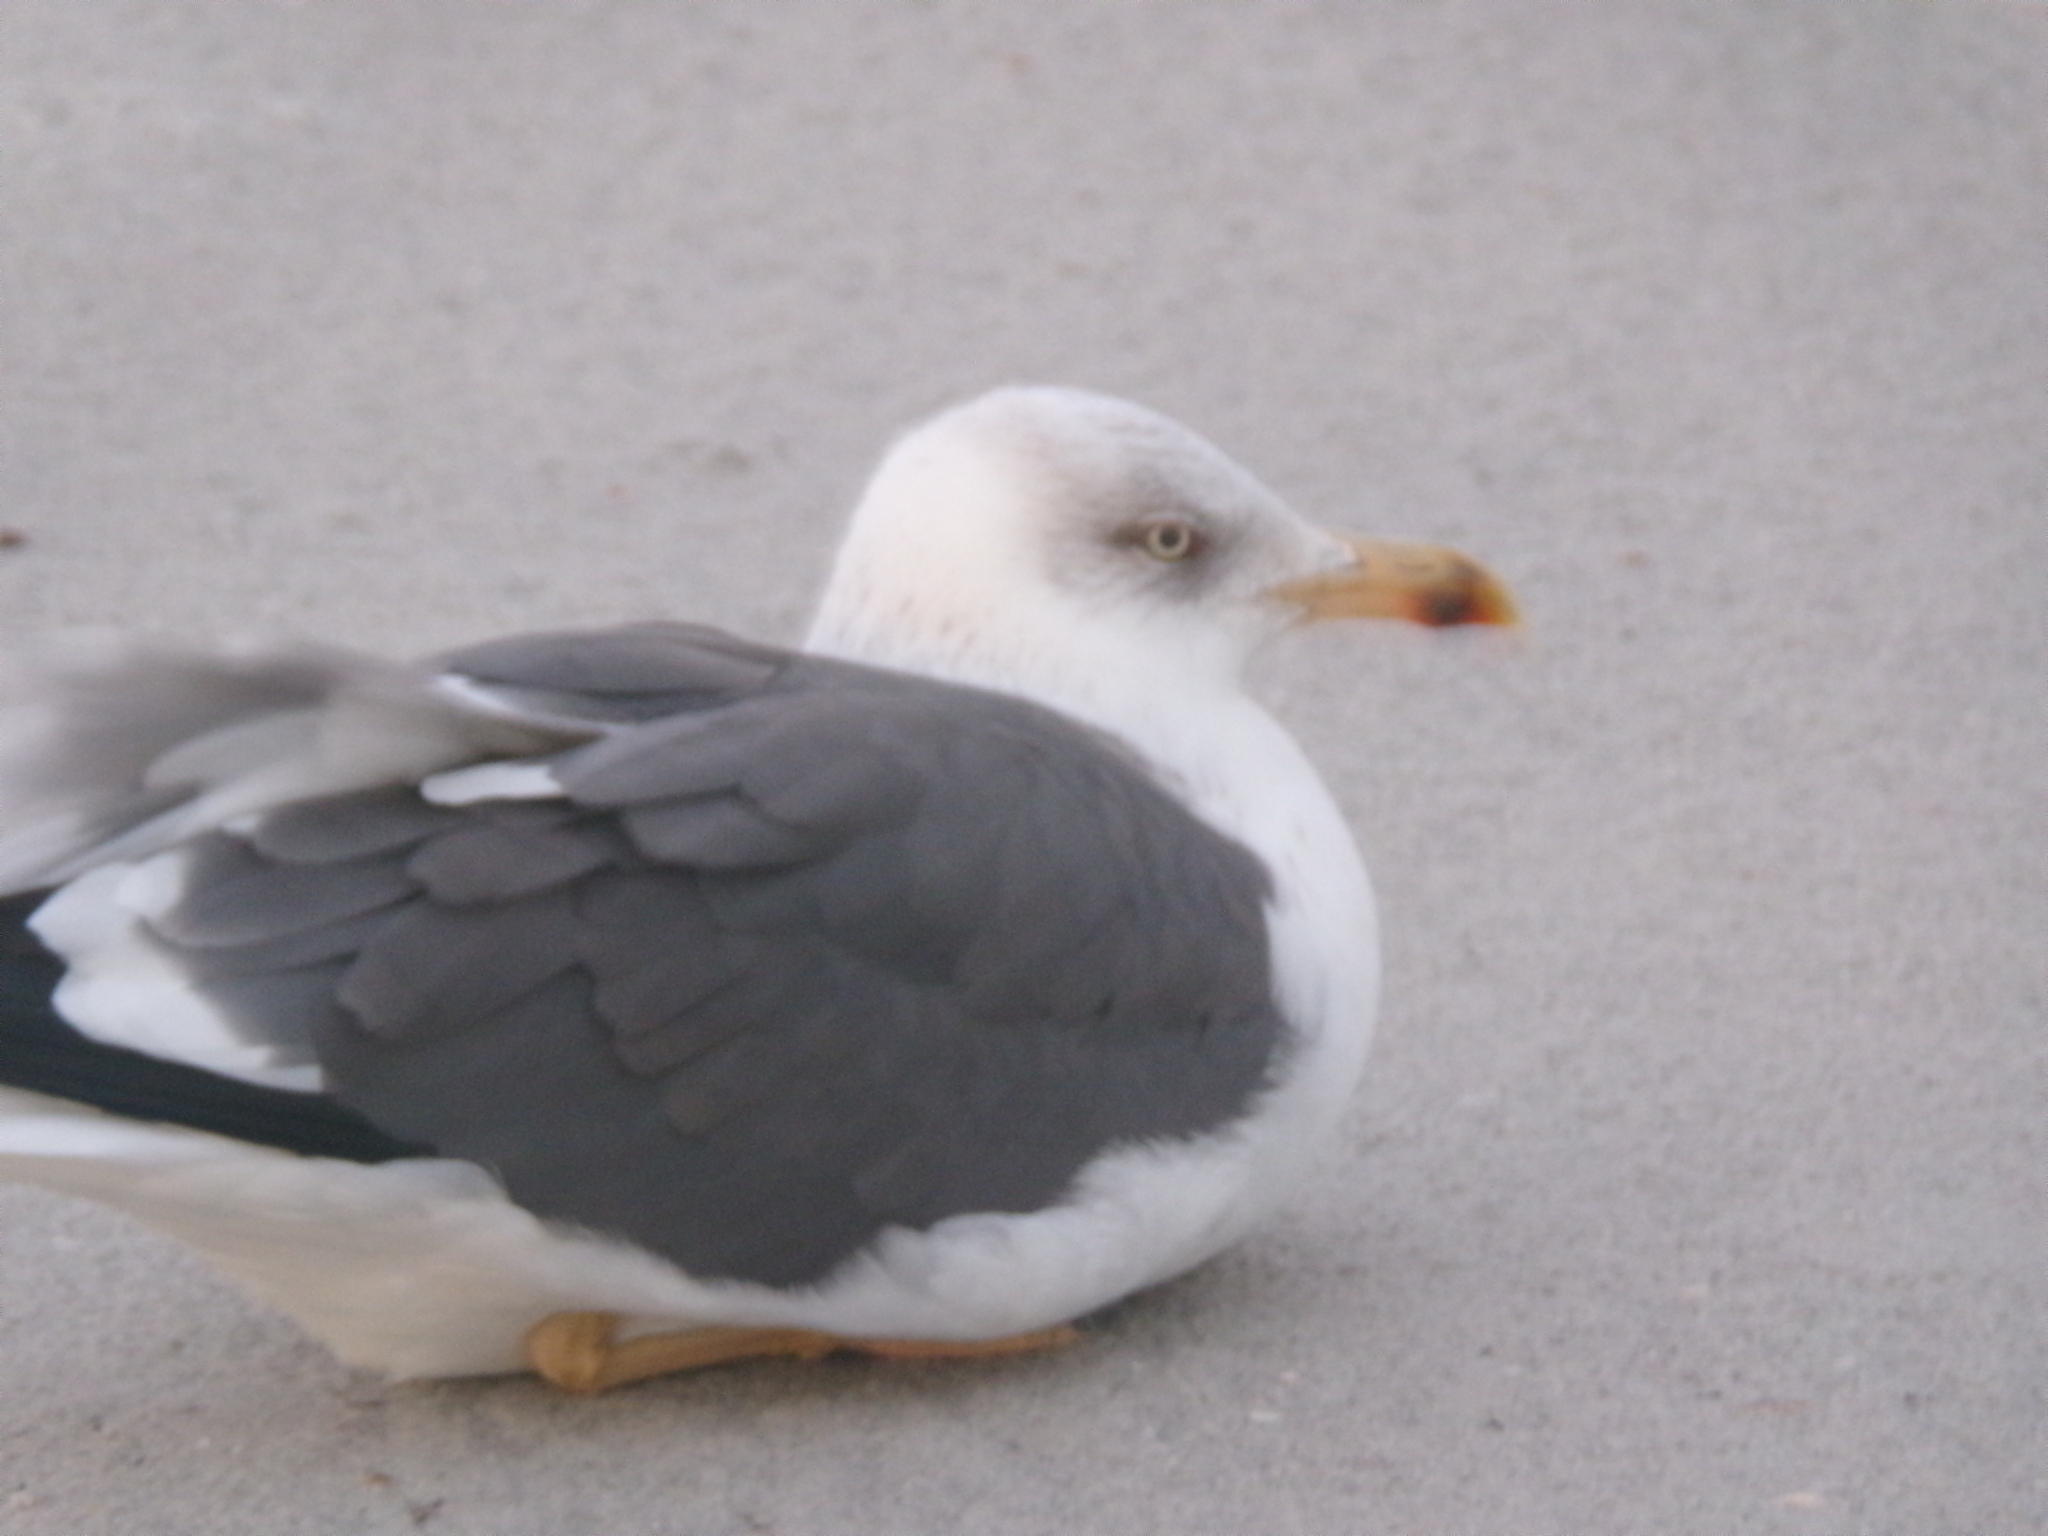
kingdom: Animalia
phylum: Chordata
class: Aves
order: Charadriiformes
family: Laridae
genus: Larus
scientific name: Larus fuscus
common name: Lesser black-backed gull
